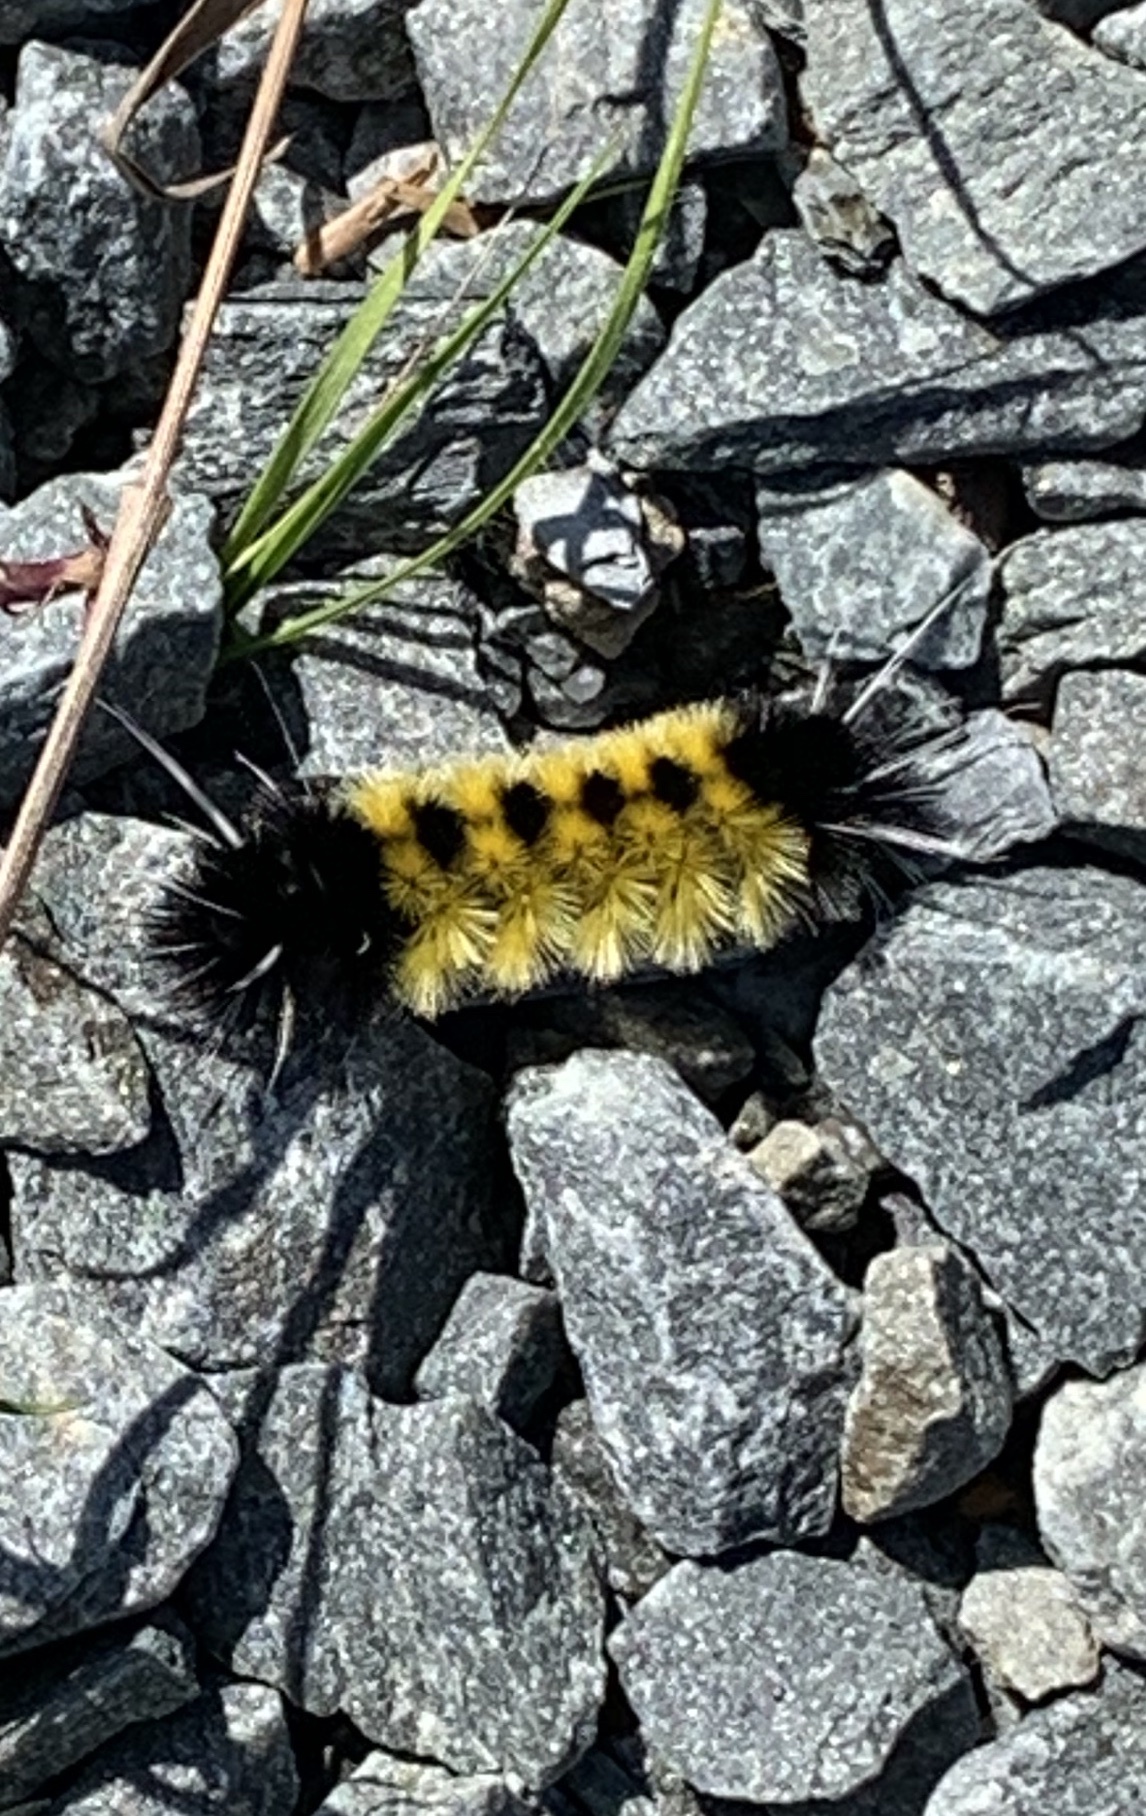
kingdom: Animalia
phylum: Arthropoda
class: Insecta
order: Lepidoptera
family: Erebidae
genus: Lophocampa
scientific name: Lophocampa maculata
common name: Spotted tussock moth
